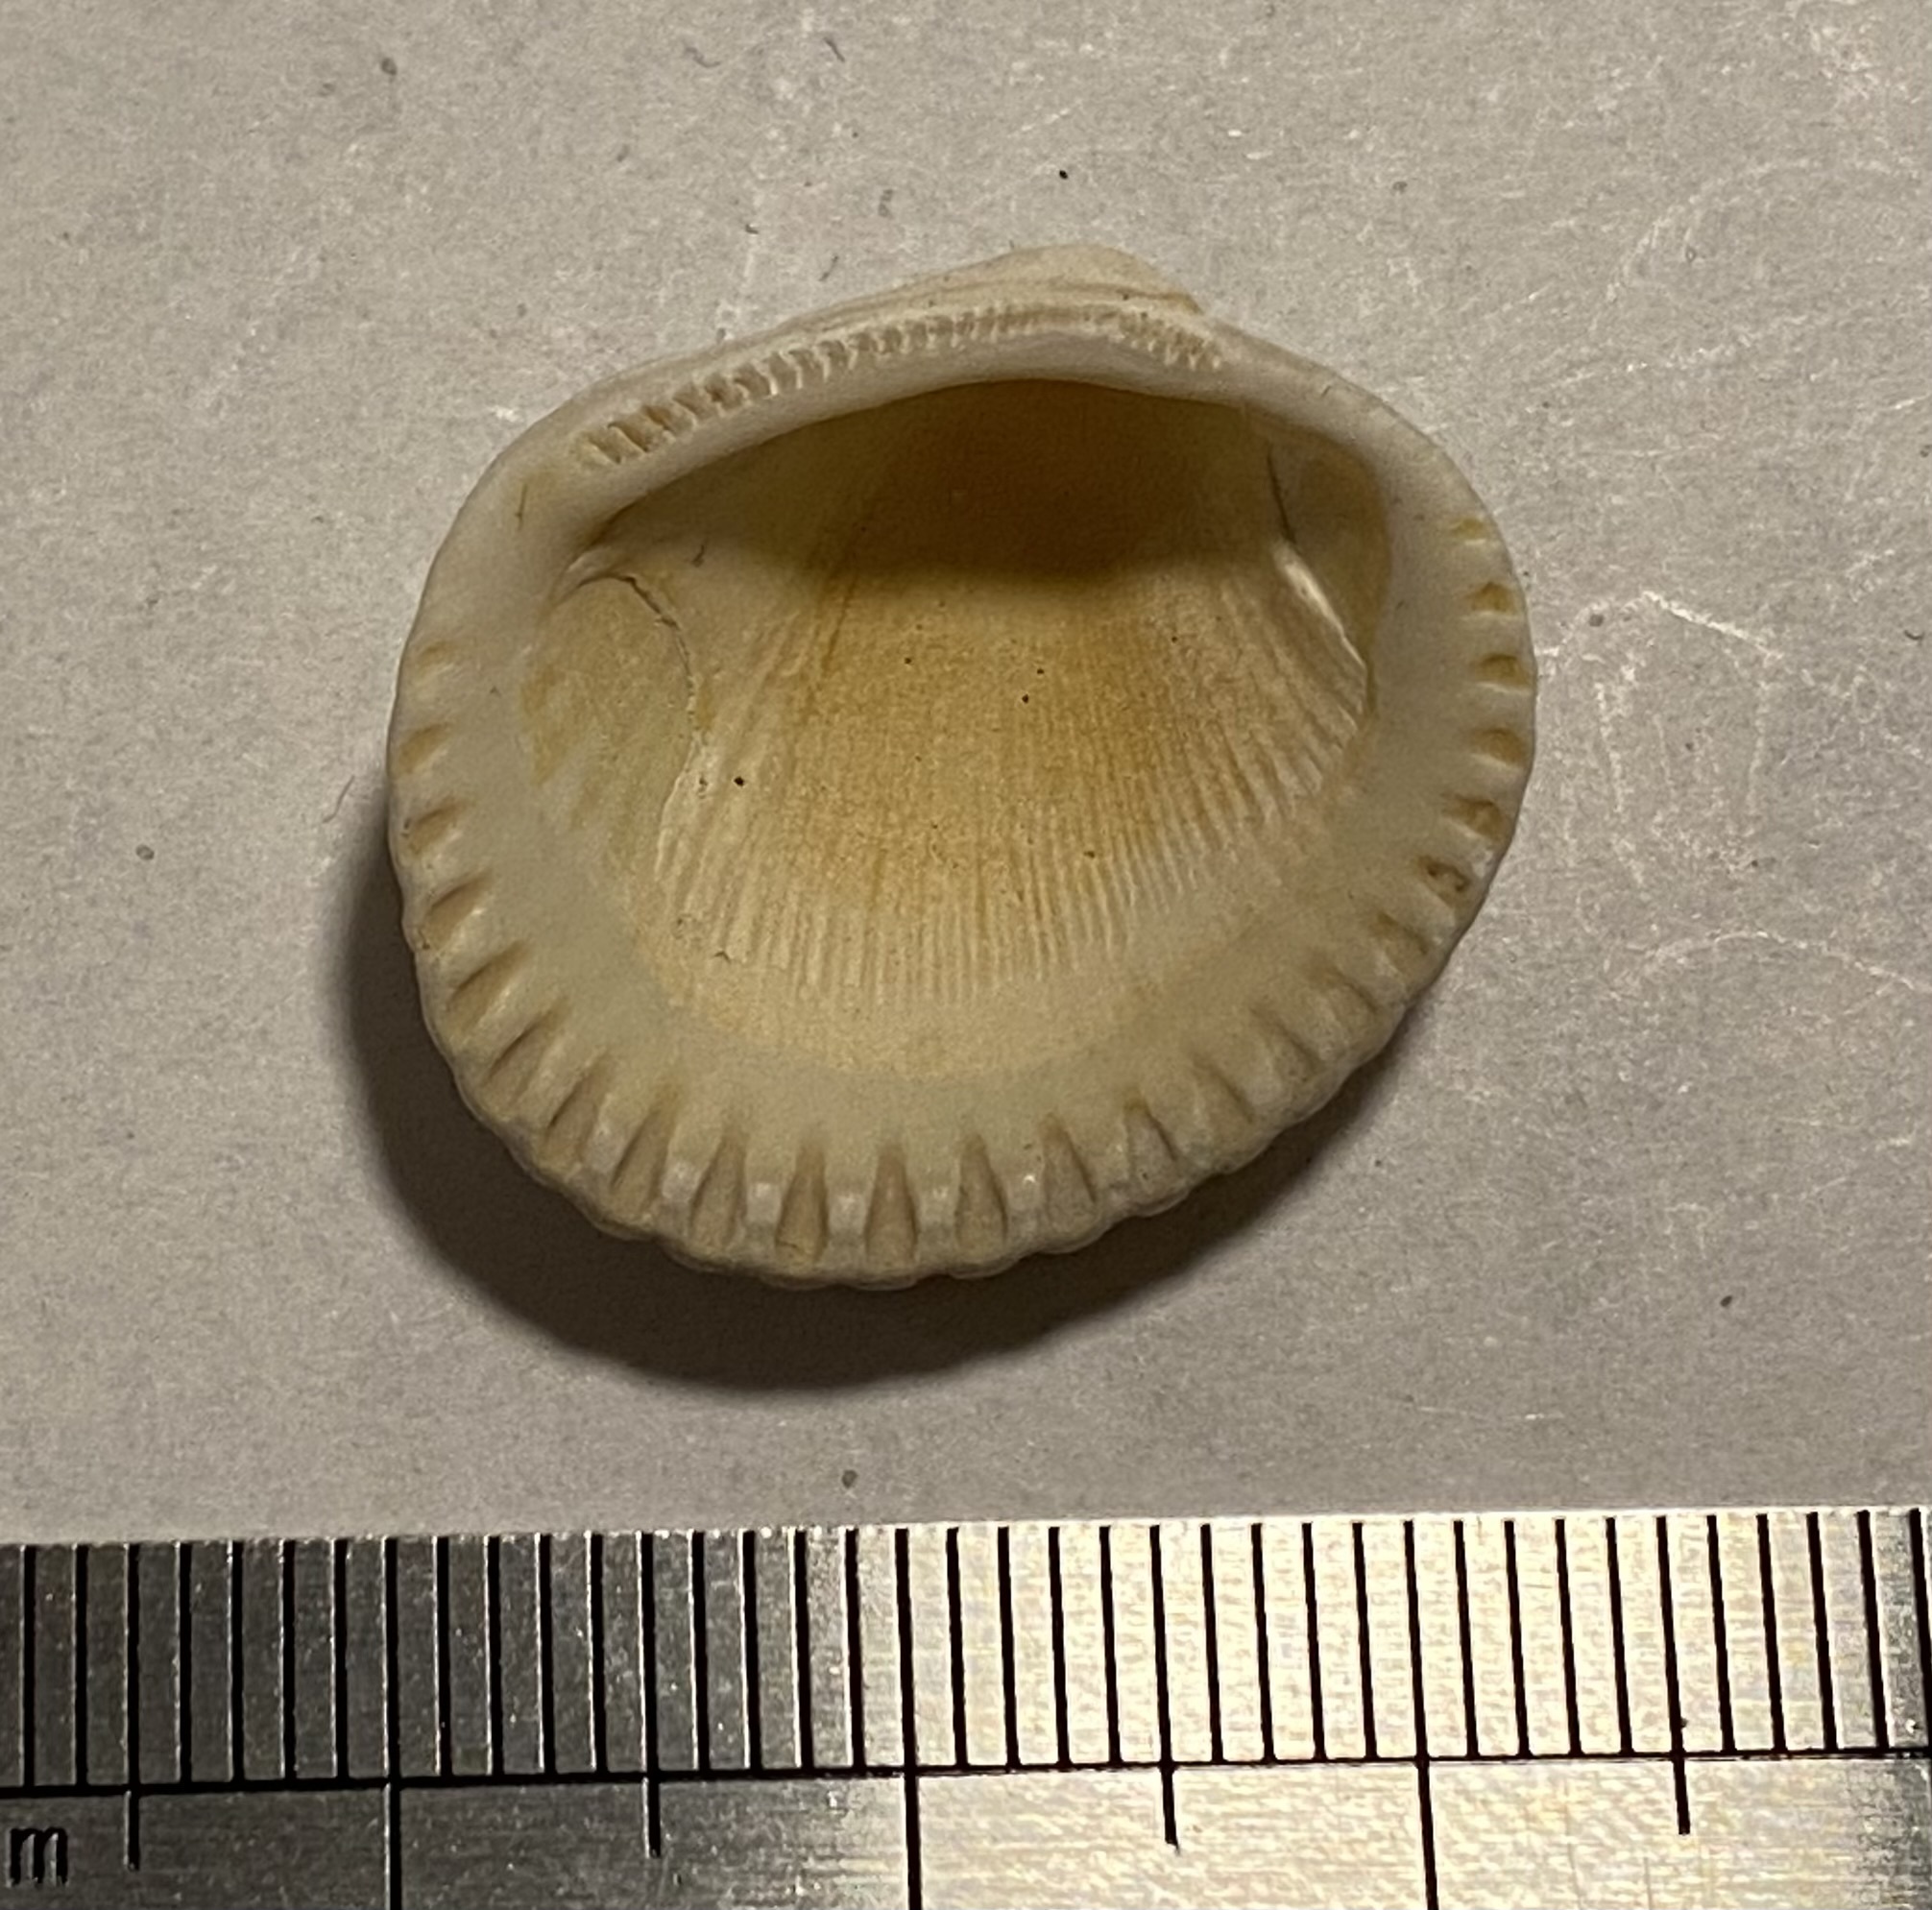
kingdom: Animalia
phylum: Mollusca
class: Bivalvia
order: Arcida
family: Arcidae
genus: Lunarca
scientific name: Lunarca ovalis
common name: Blood ark
